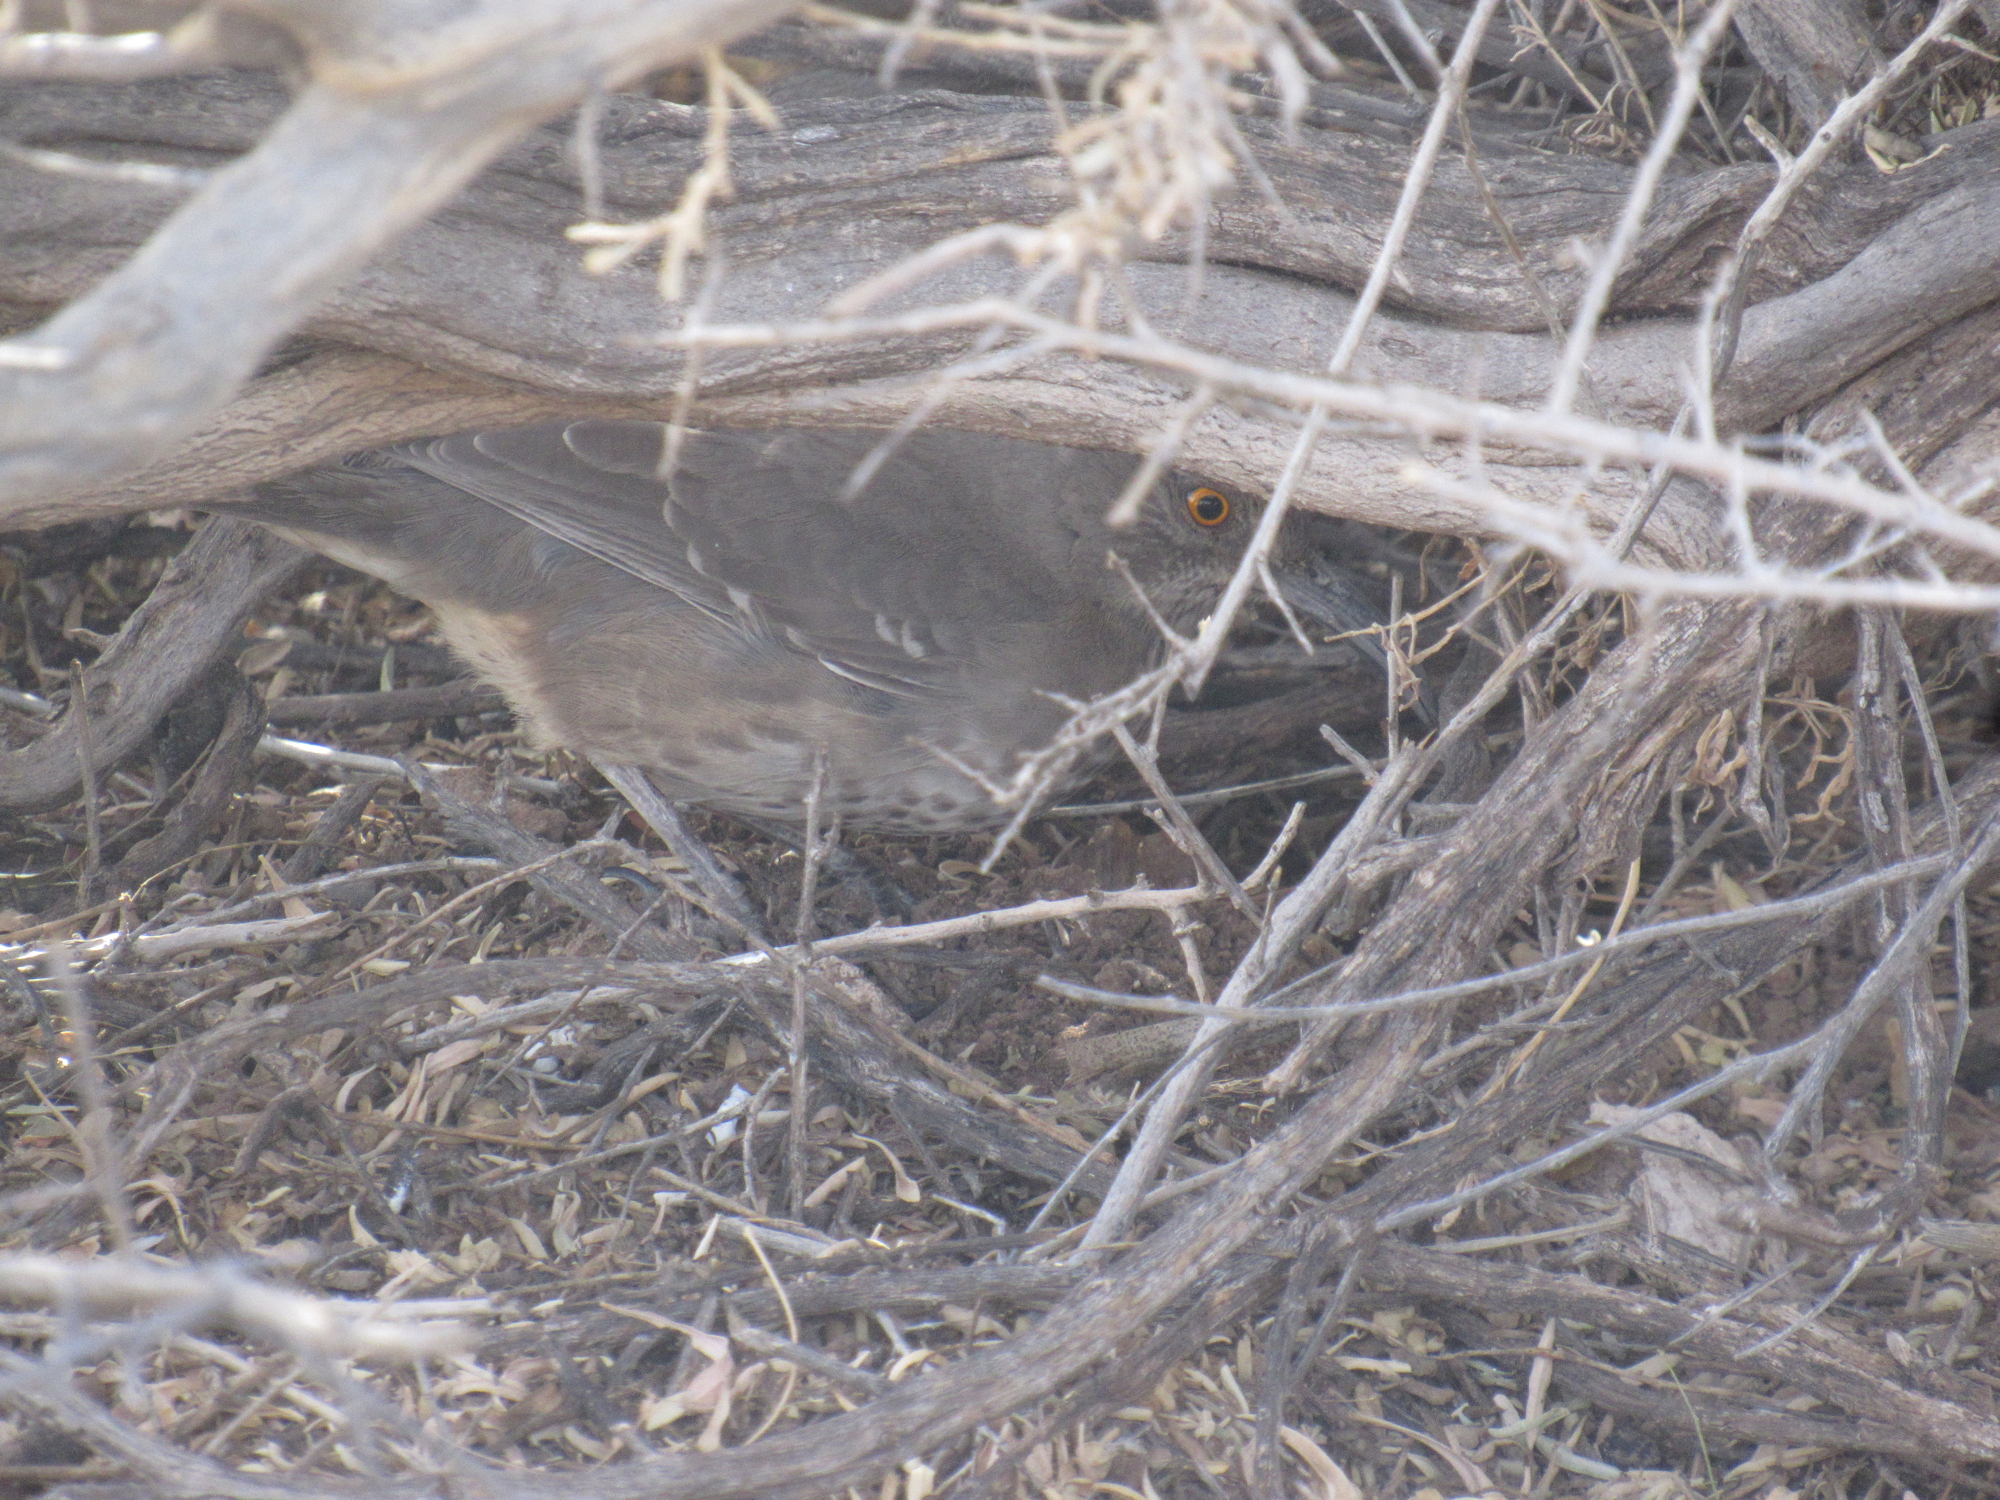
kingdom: Animalia
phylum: Chordata
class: Aves
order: Passeriformes
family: Mimidae
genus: Toxostoma
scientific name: Toxostoma curvirostre
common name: Curve-billed thrasher
